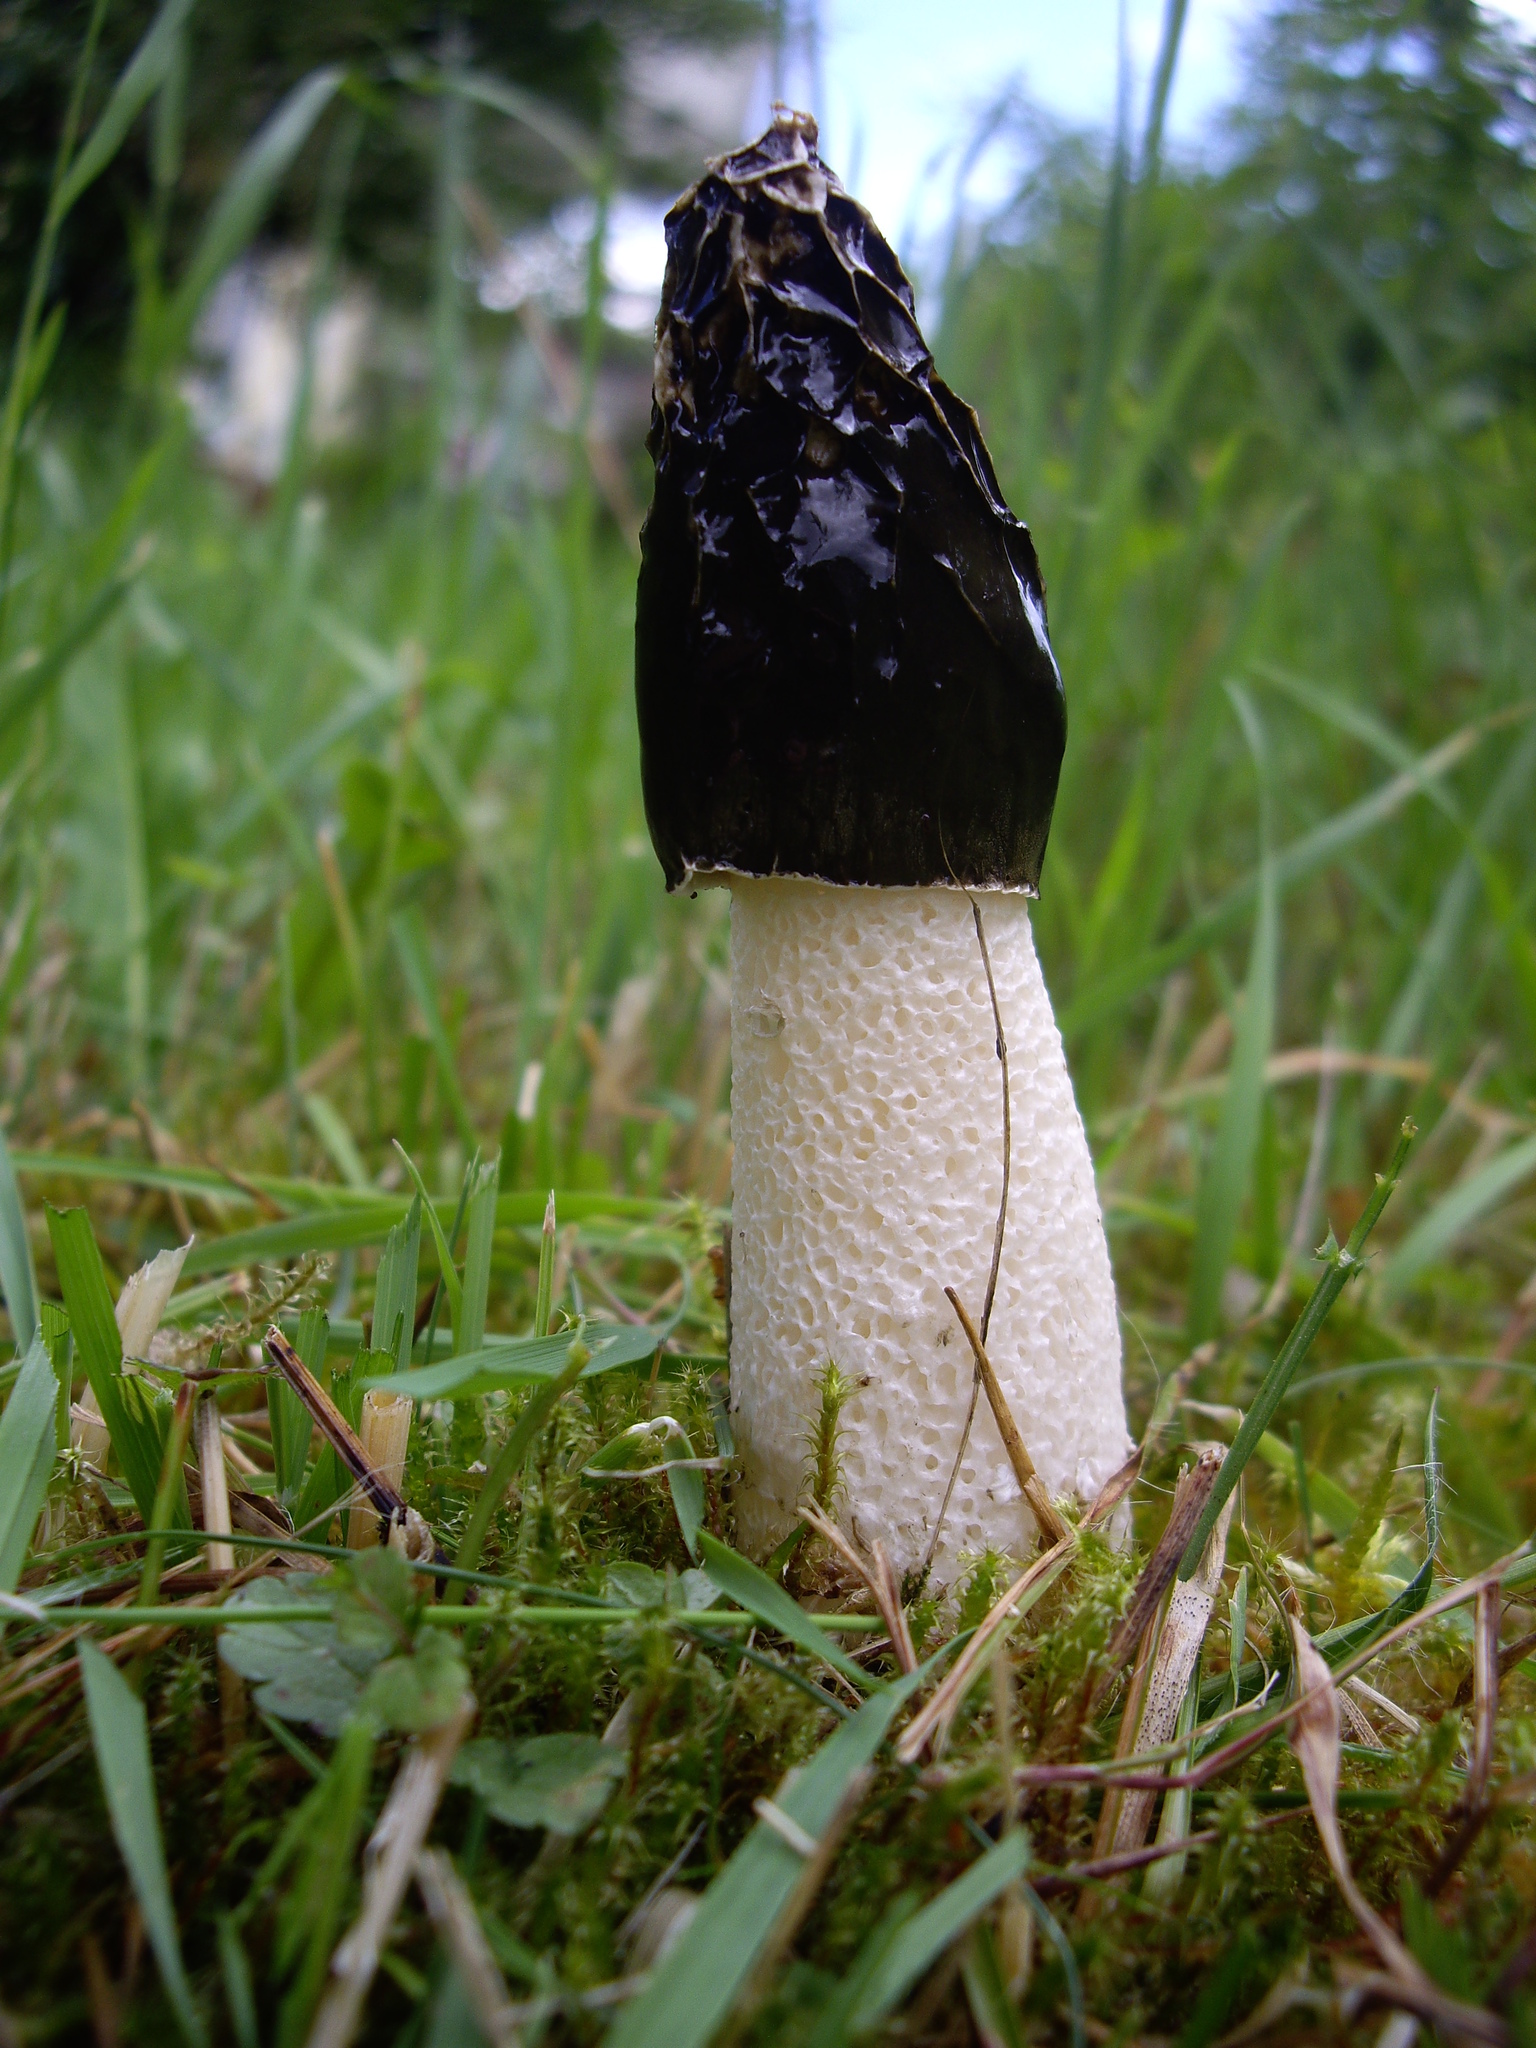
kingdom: Fungi
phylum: Basidiomycota
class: Agaricomycetes
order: Phallales
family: Phallaceae
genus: Phallus
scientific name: Phallus impudicus
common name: Common stinkhorn
